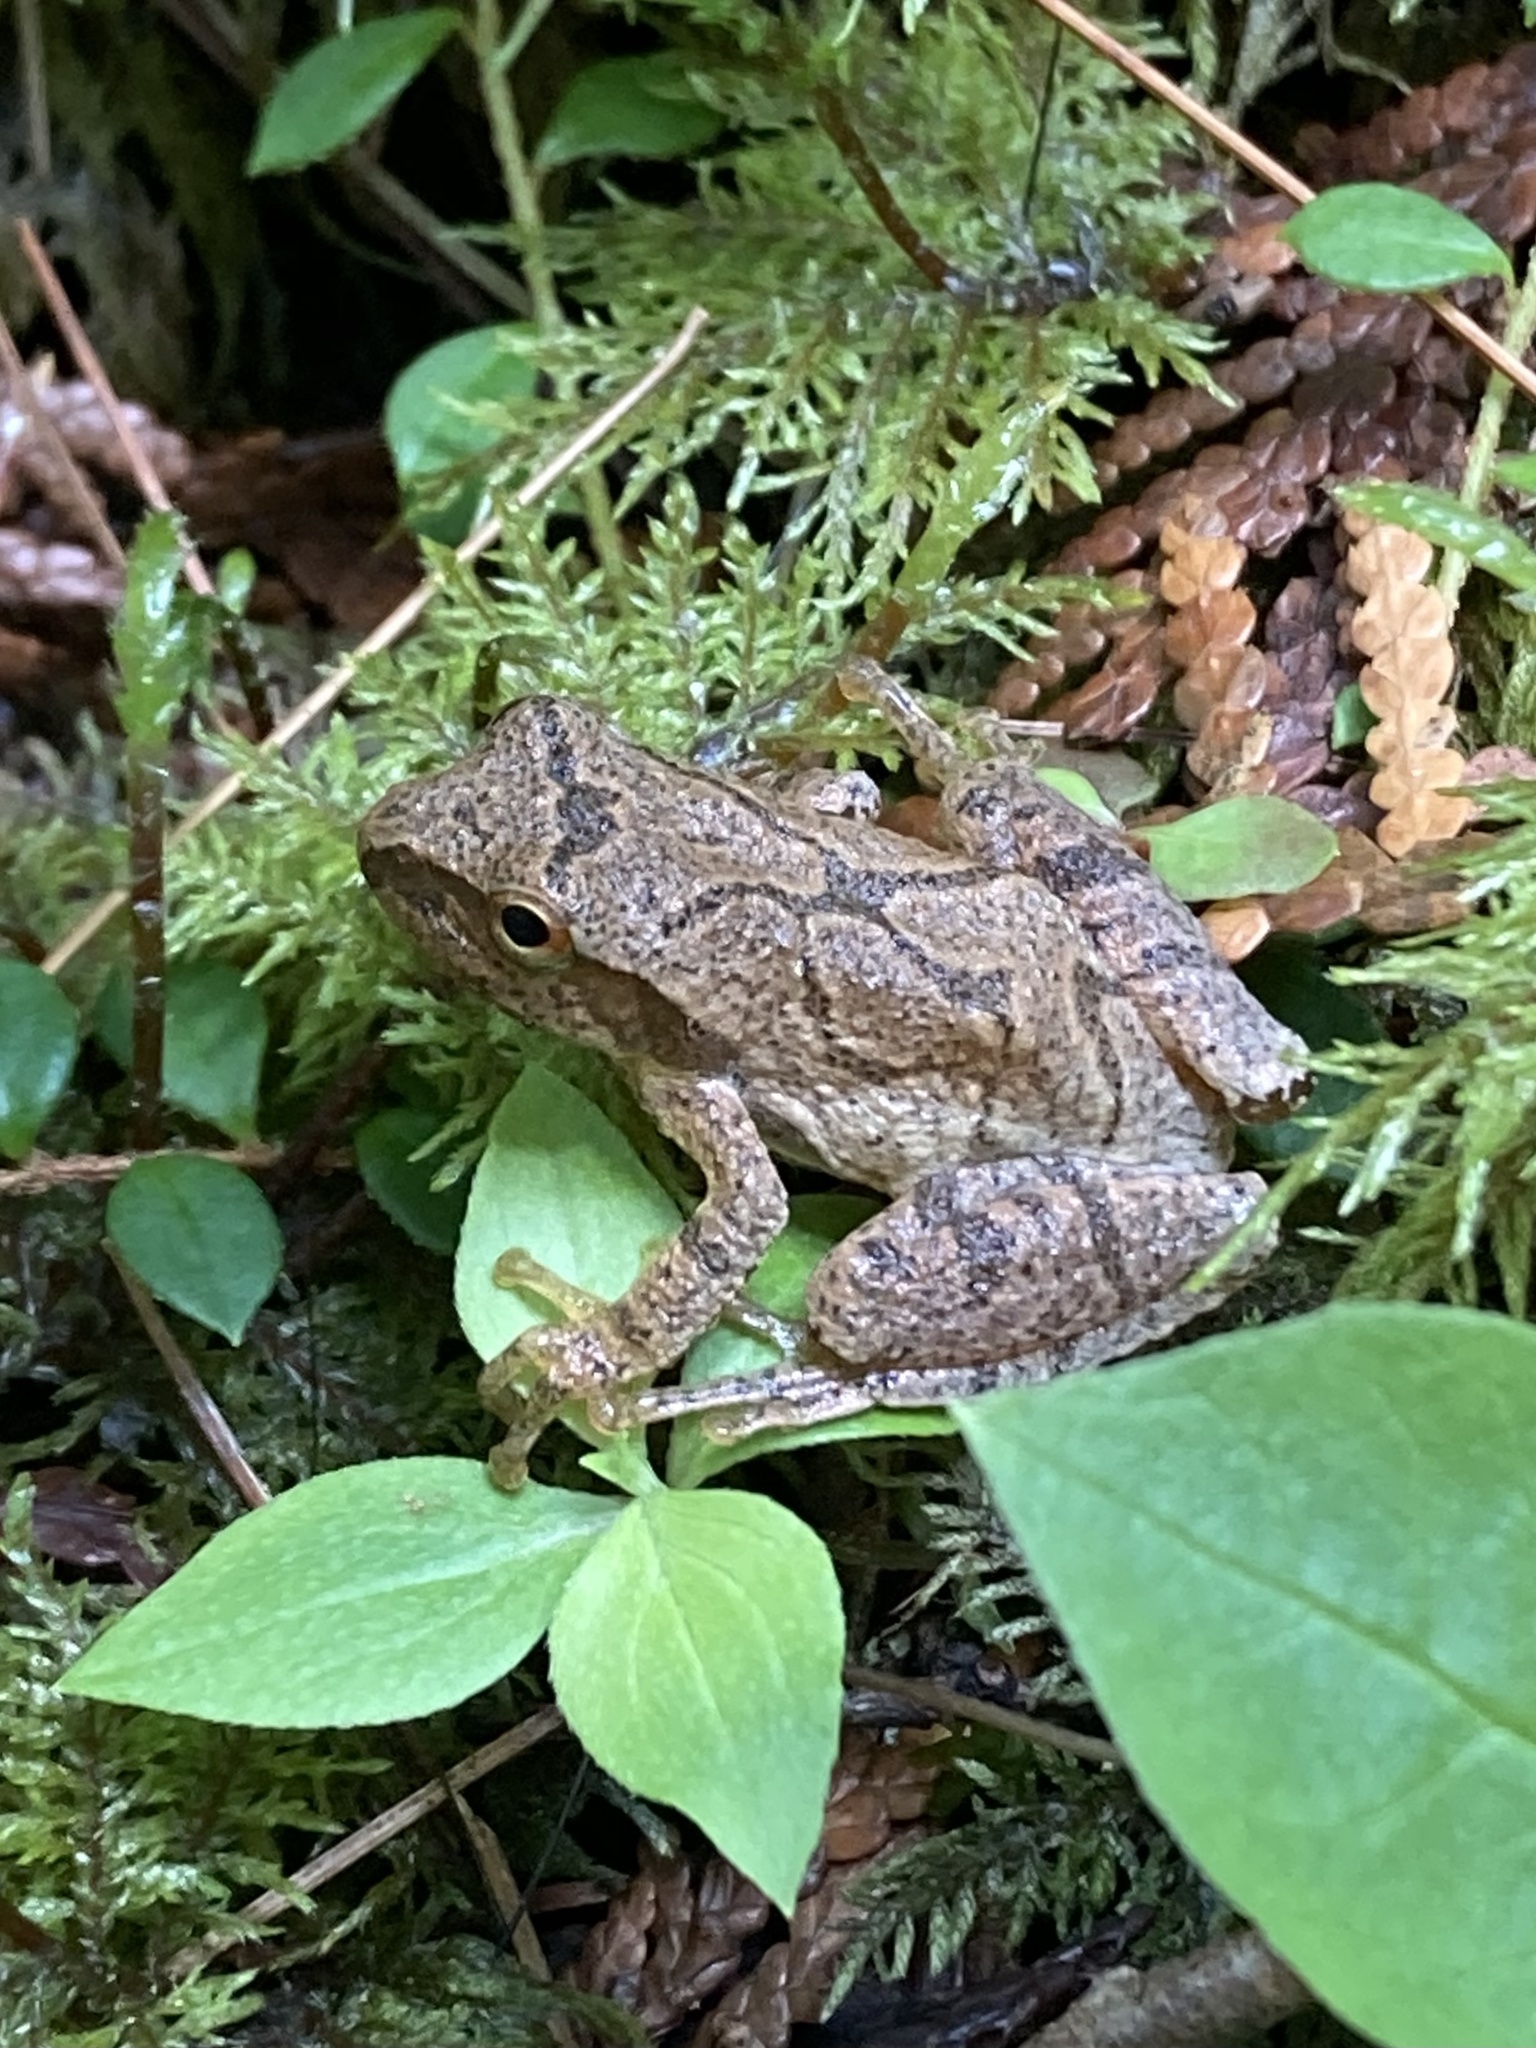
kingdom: Animalia
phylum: Chordata
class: Amphibia
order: Anura
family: Hylidae
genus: Pseudacris
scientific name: Pseudacris crucifer
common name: Spring peeper
